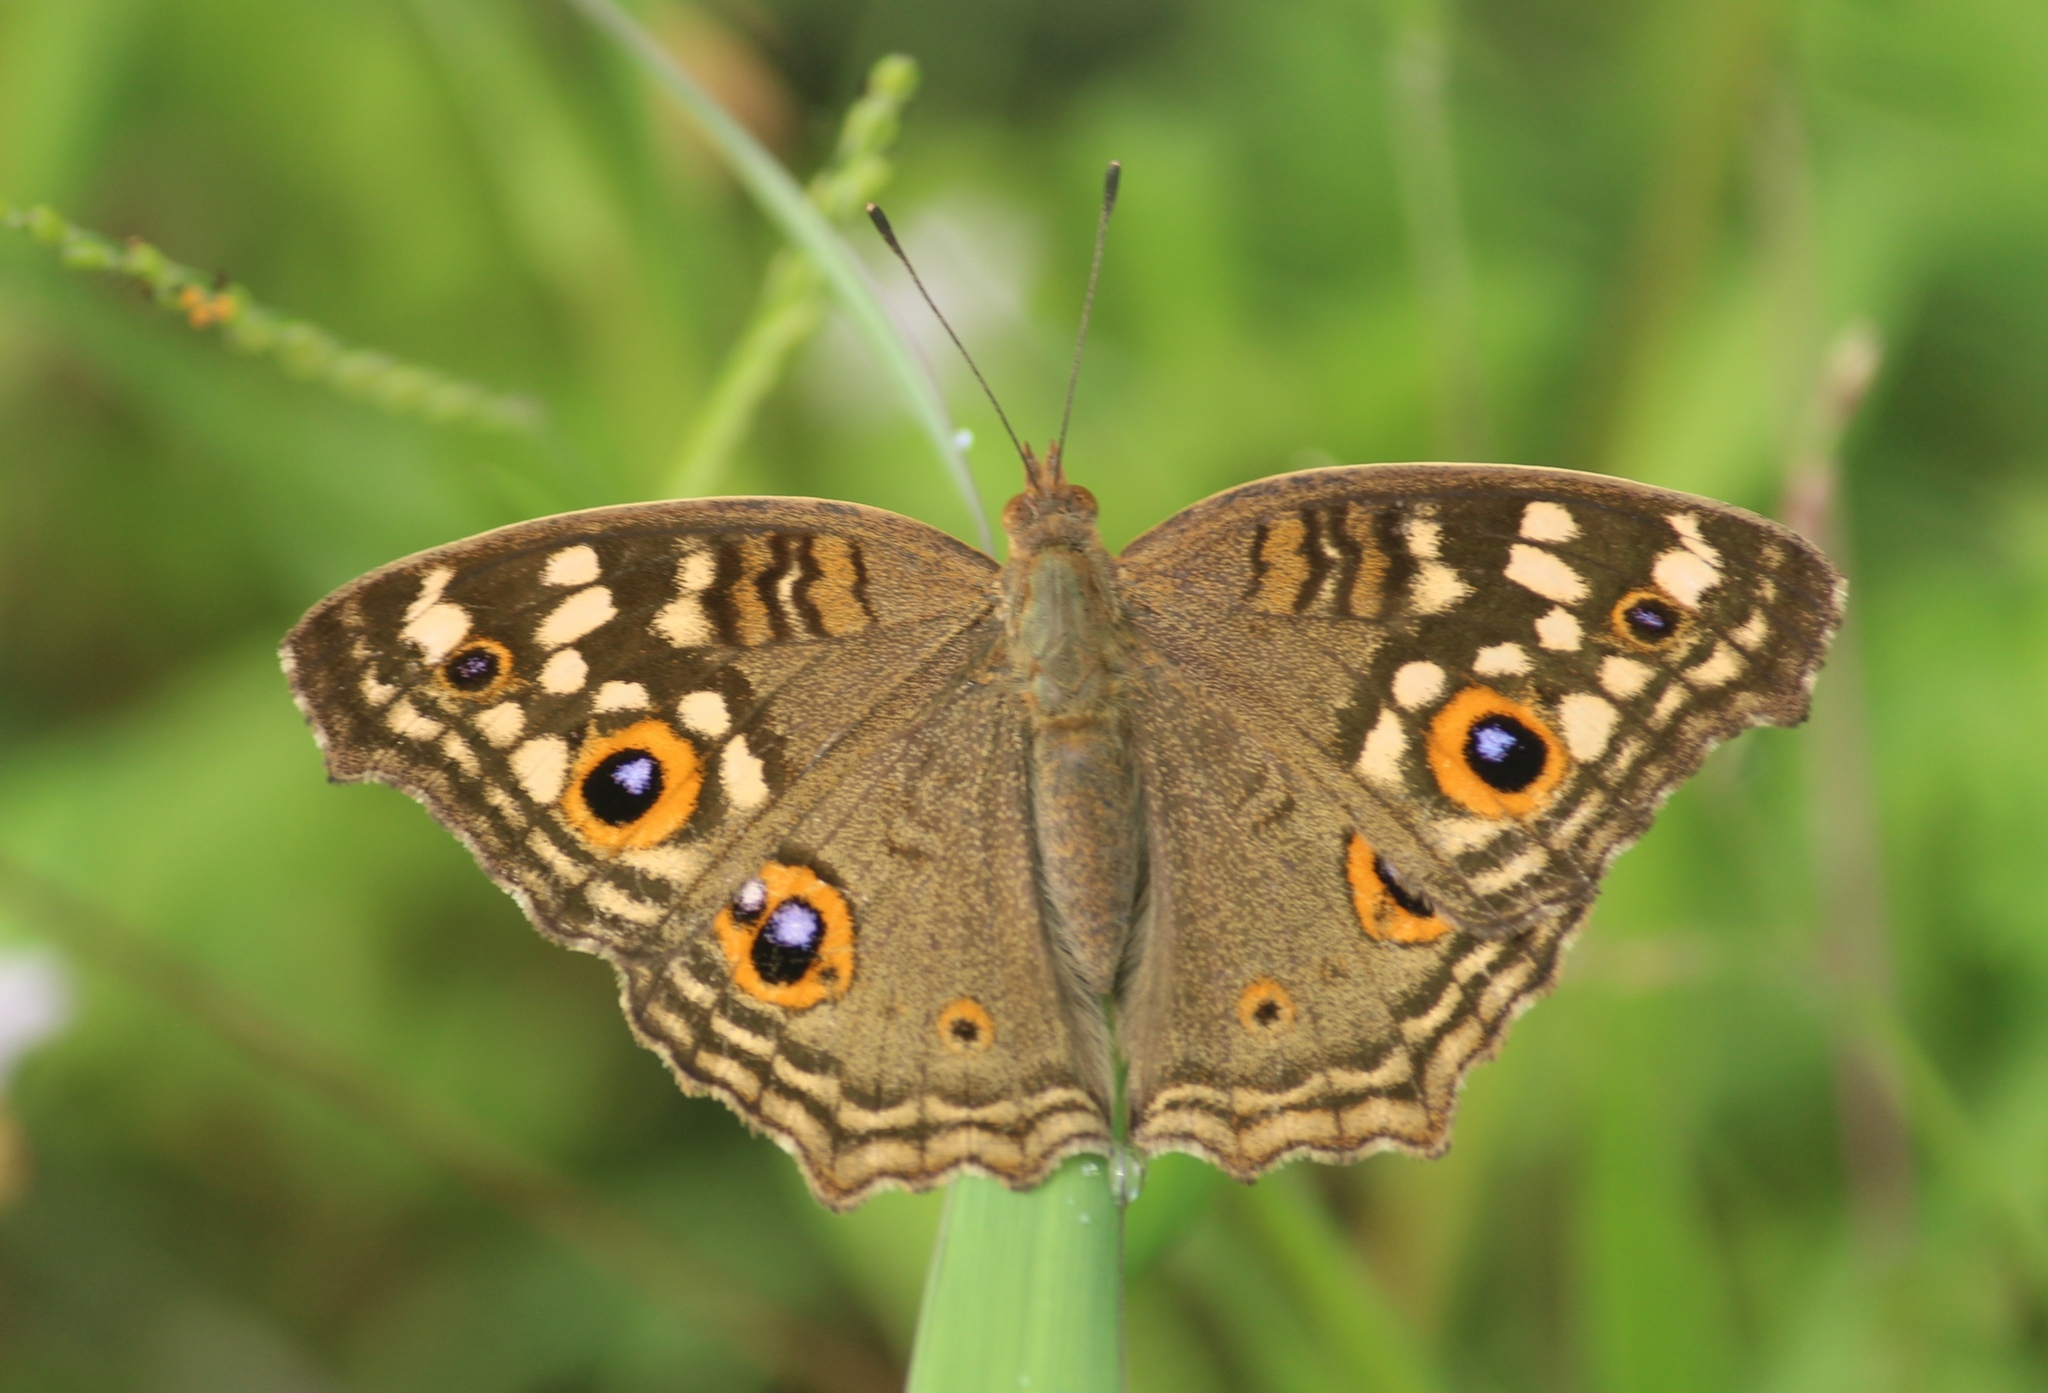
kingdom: Animalia
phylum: Arthropoda
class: Insecta
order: Lepidoptera
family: Nymphalidae
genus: Junonia
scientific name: Junonia lemonias
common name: Lemon pansy
